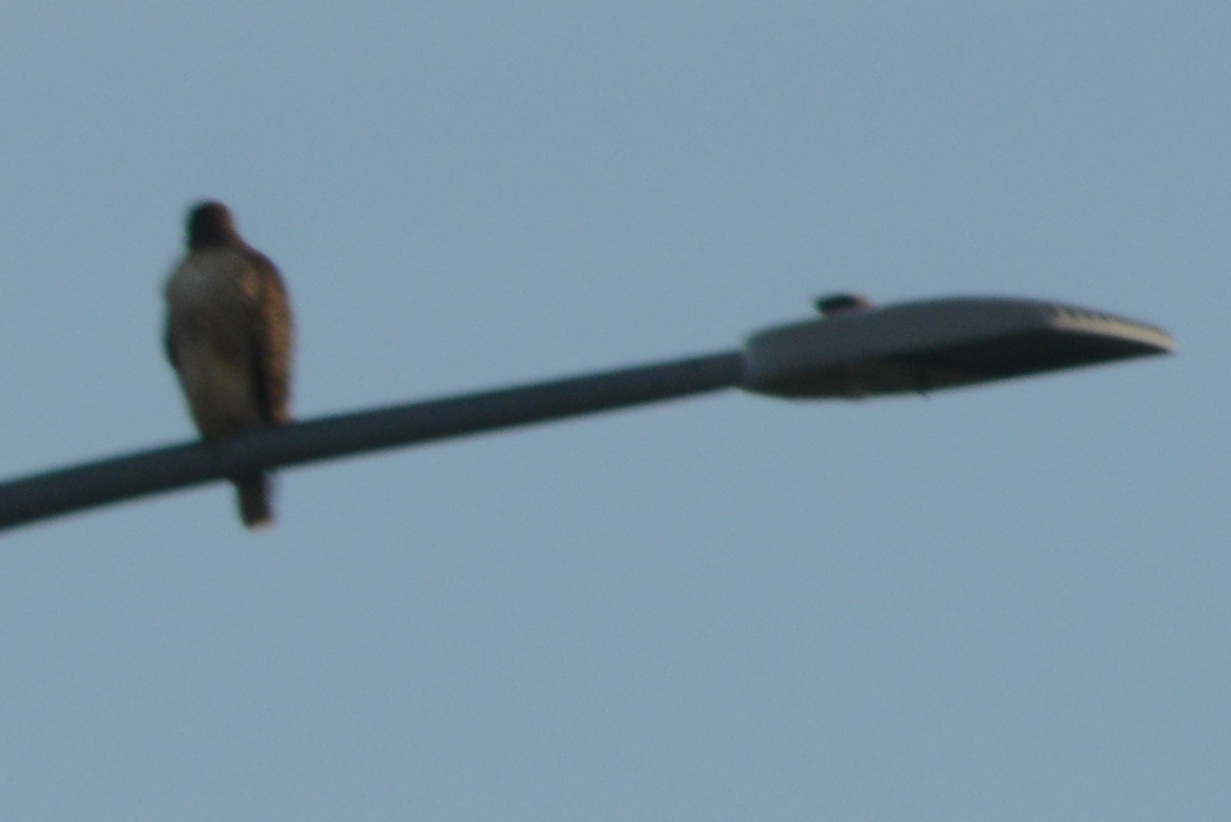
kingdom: Animalia
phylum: Chordata
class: Aves
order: Accipitriformes
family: Accipitridae
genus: Buteo
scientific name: Buteo jamaicensis
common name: Red-tailed hawk
